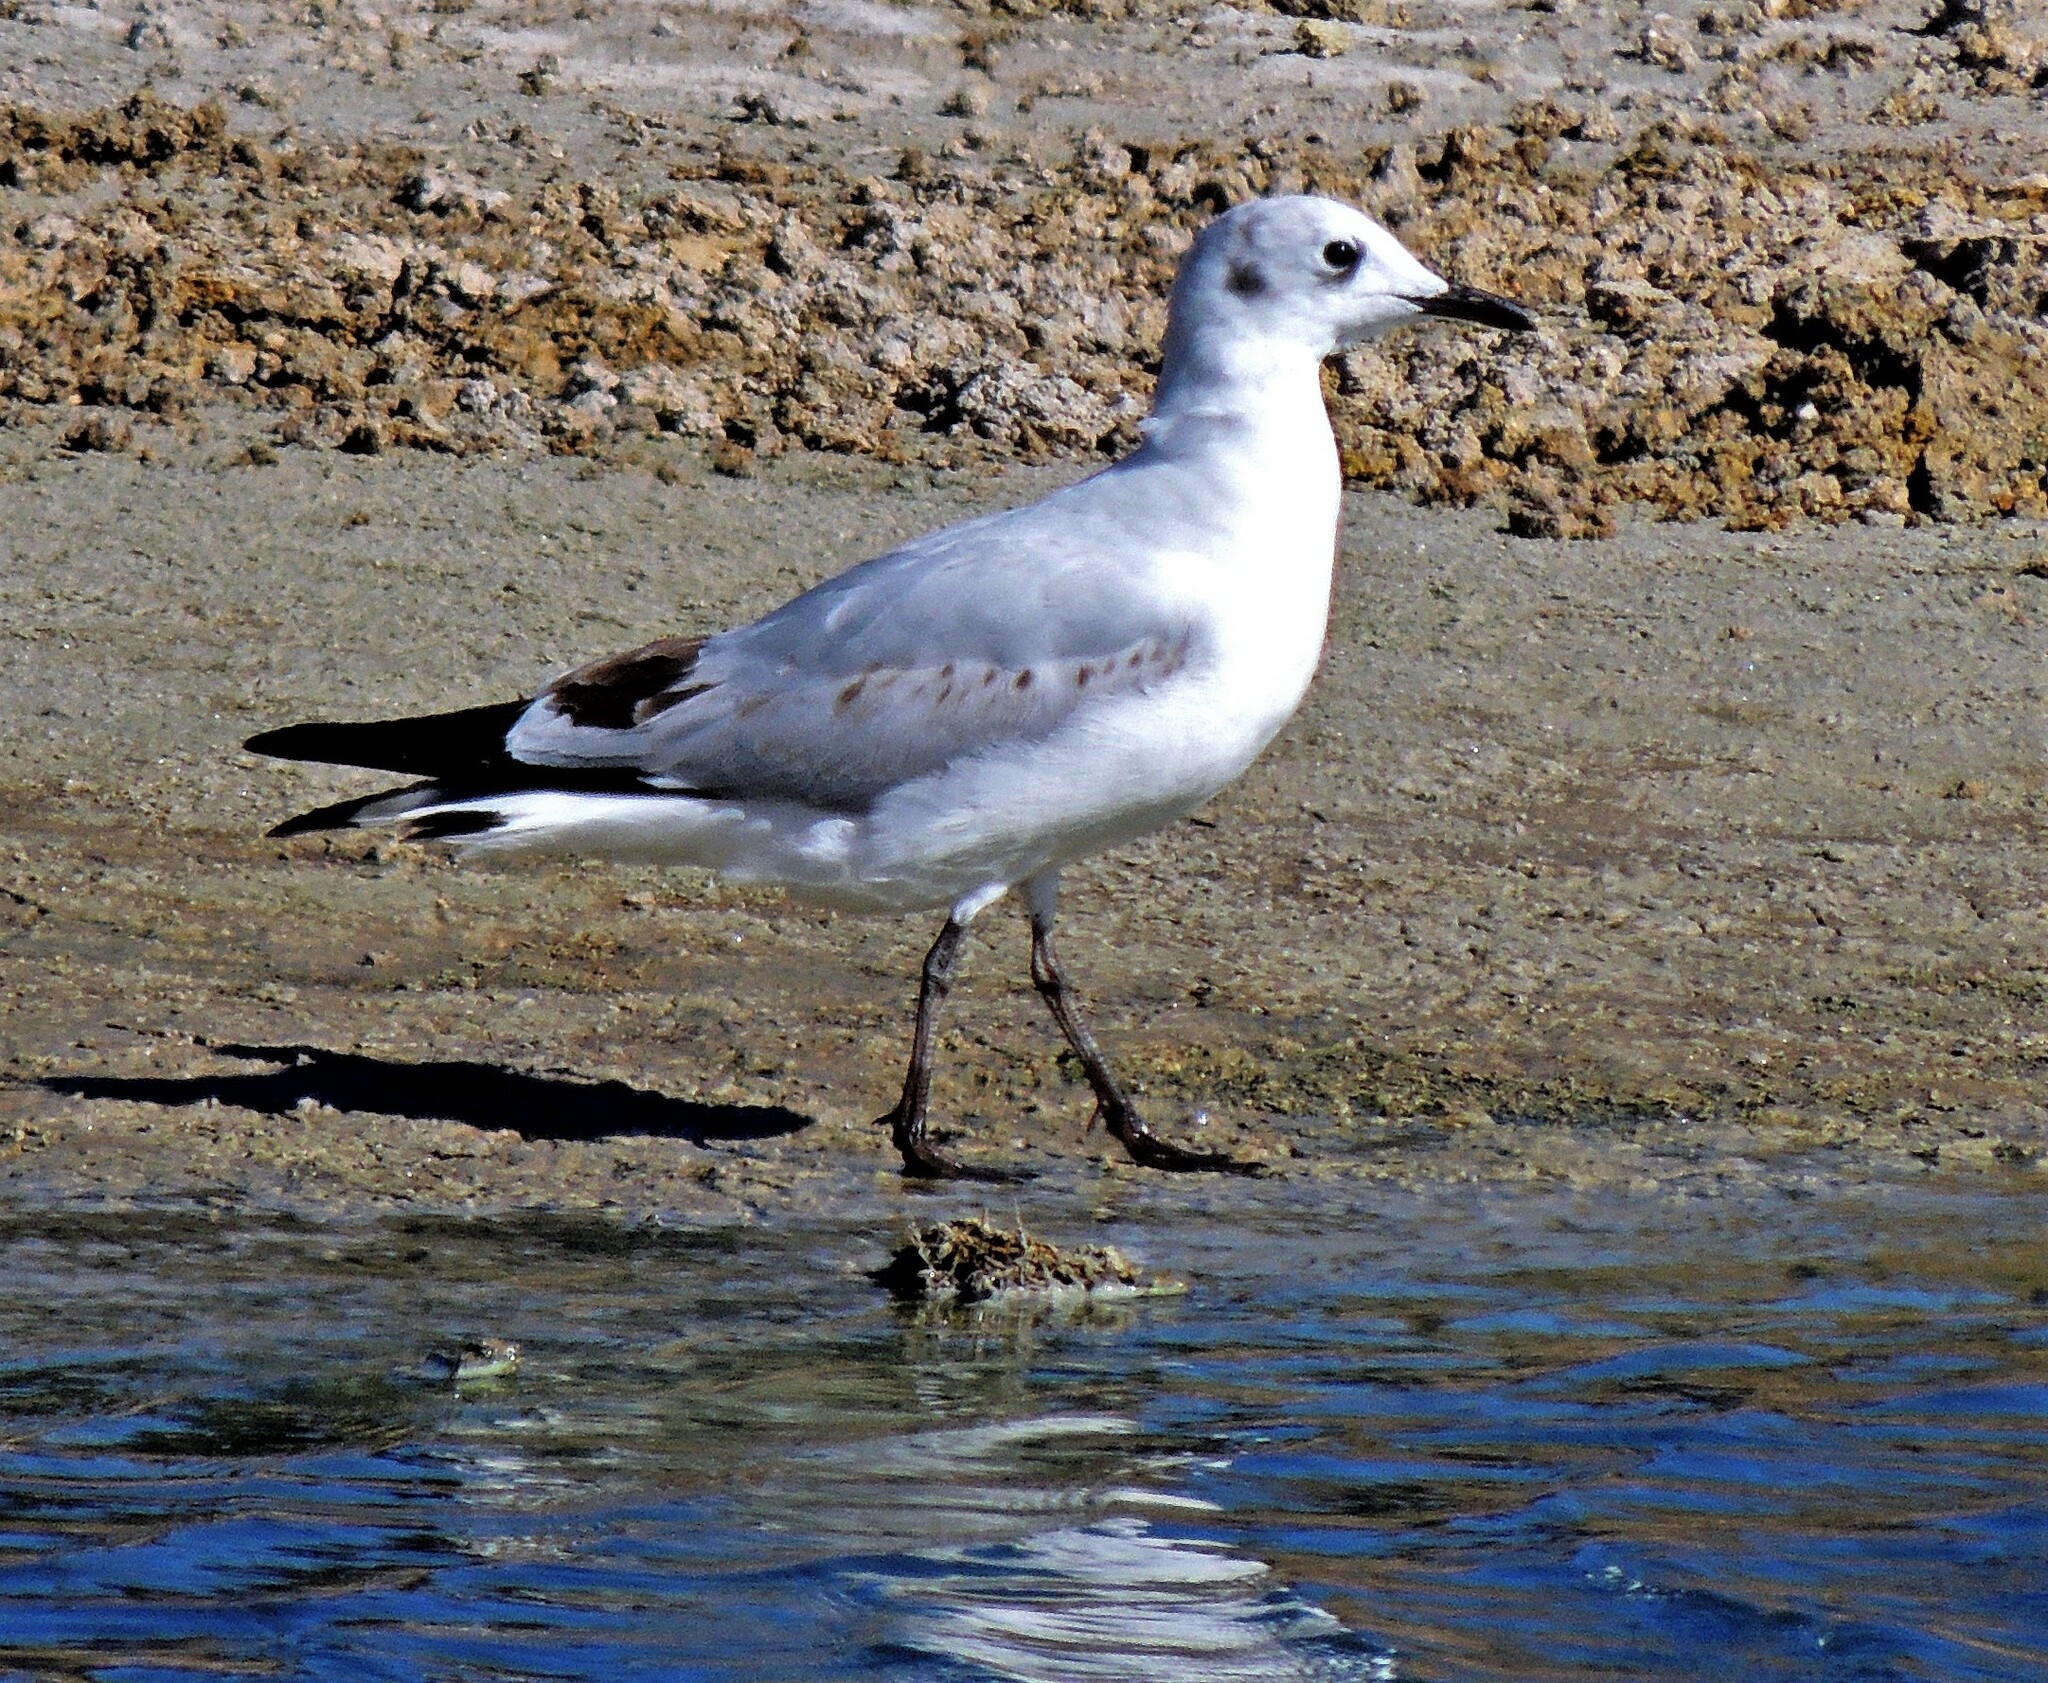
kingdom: Animalia
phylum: Chordata
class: Aves
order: Charadriiformes
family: Laridae
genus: Chroicocephalus
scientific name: Chroicocephalus serranus
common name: Andean gull
